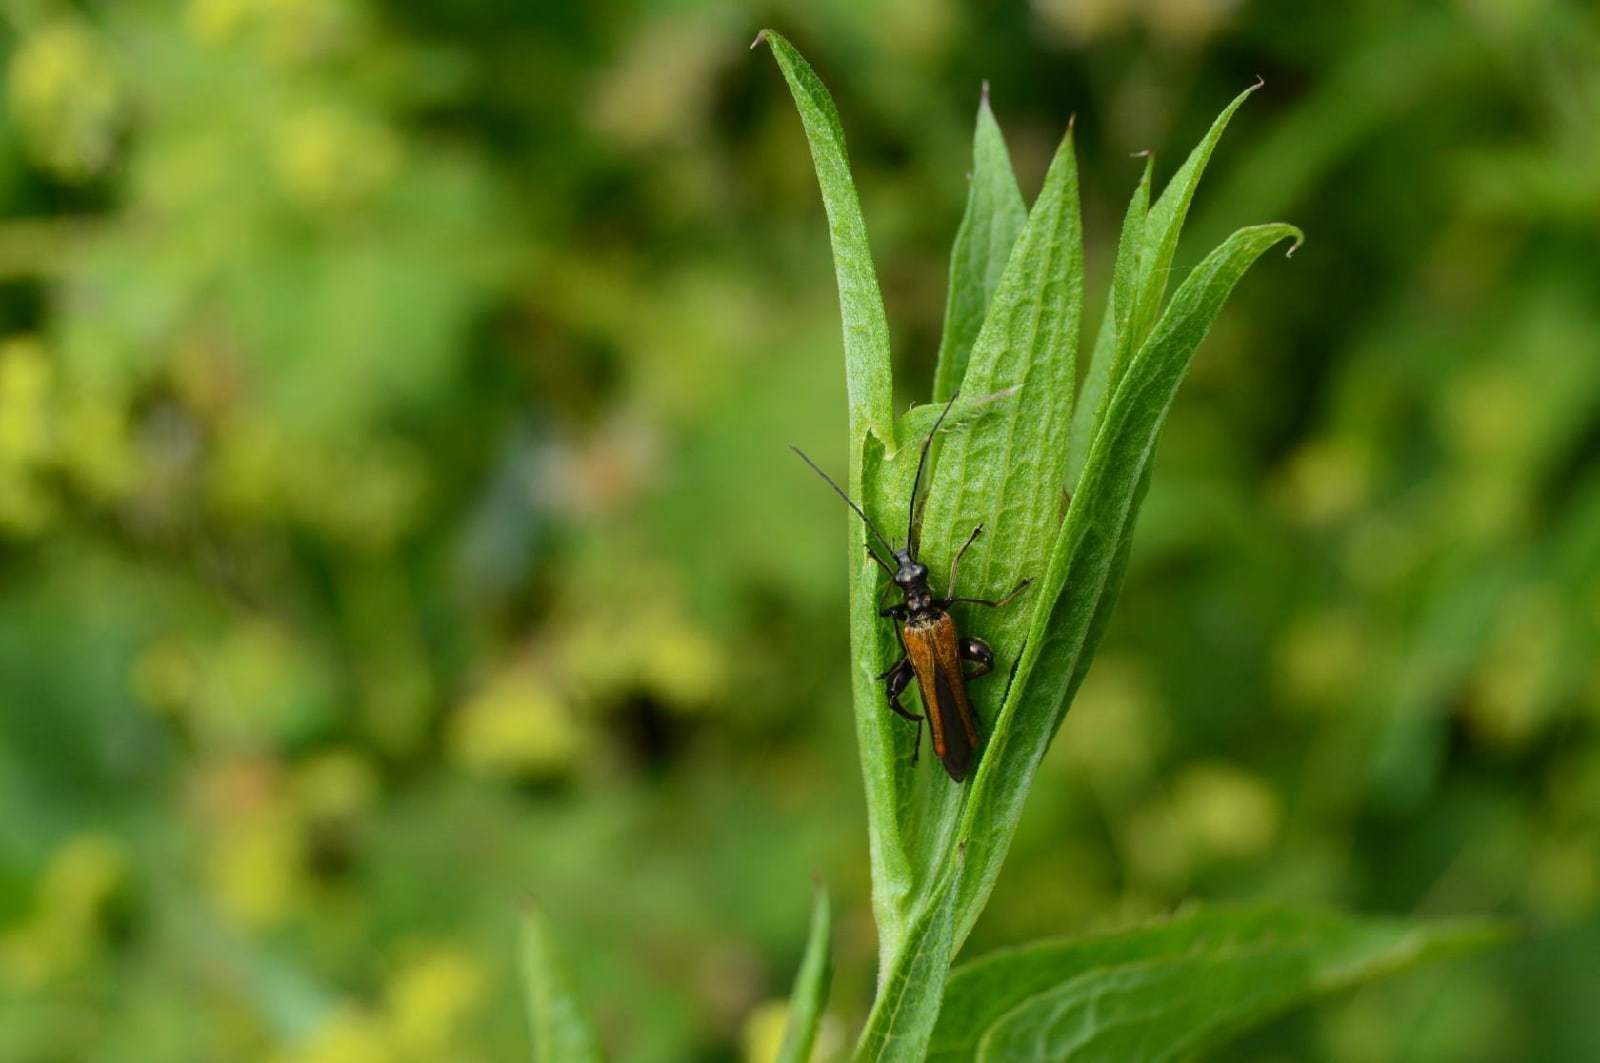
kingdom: Animalia
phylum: Arthropoda
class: Insecta
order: Coleoptera
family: Oedemeridae
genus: Oedemera
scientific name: Oedemera femorata
